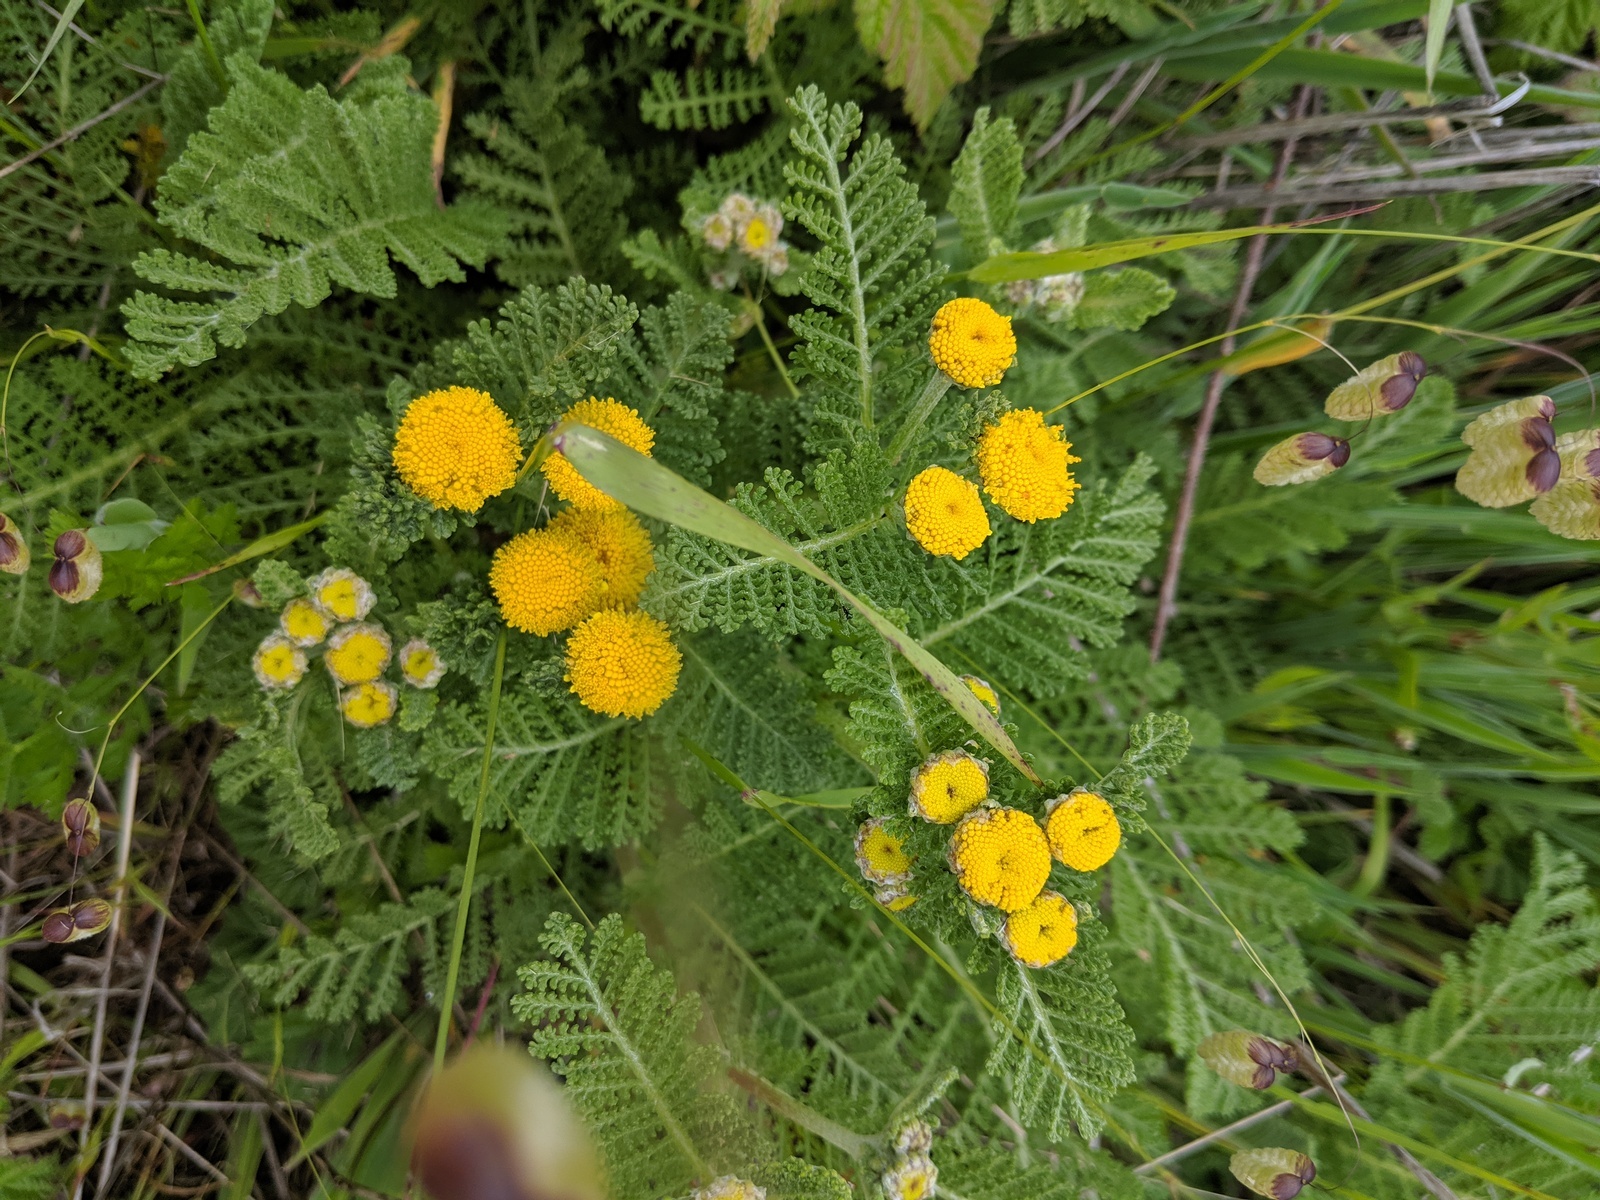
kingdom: Plantae
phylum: Tracheophyta
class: Magnoliopsida
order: Asterales
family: Asteraceae
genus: Tanacetum
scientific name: Tanacetum bipinnatum
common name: Dwarf tansy
